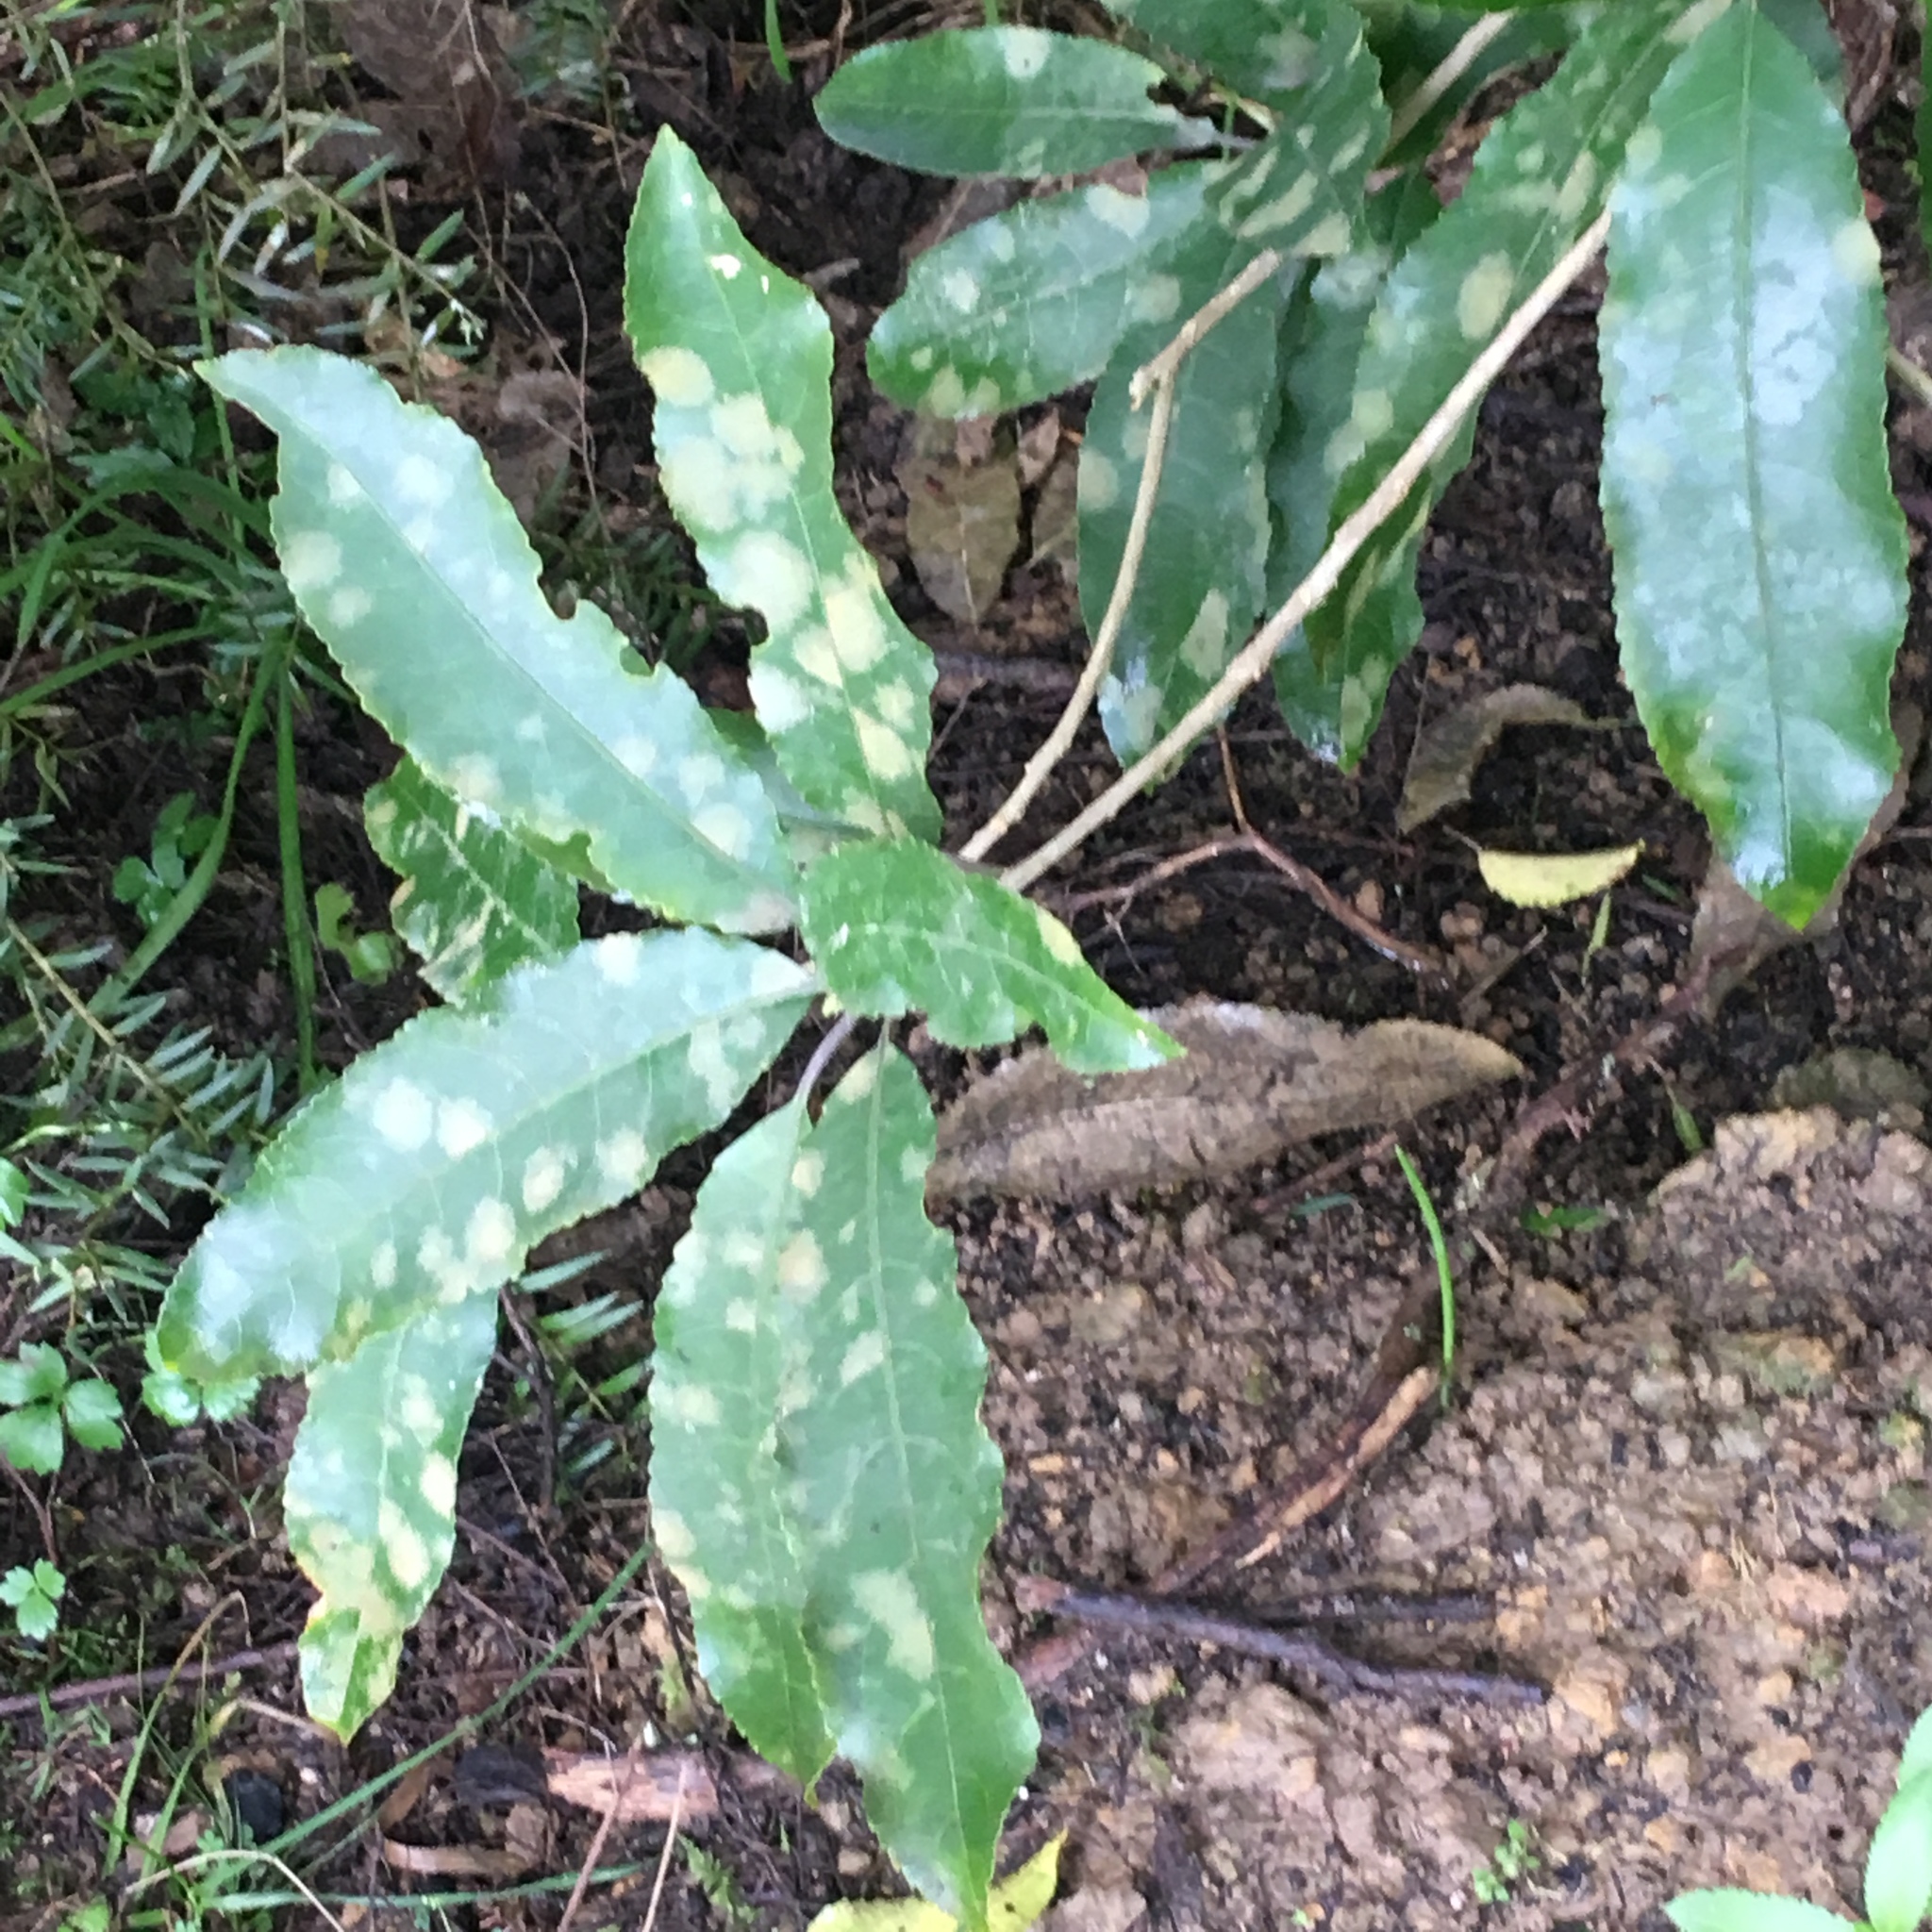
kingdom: Plantae
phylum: Tracheophyta
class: Magnoliopsida
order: Malpighiales
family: Violaceae
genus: Melicytus
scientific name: Melicytus ramiflorus
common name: Mahoe
